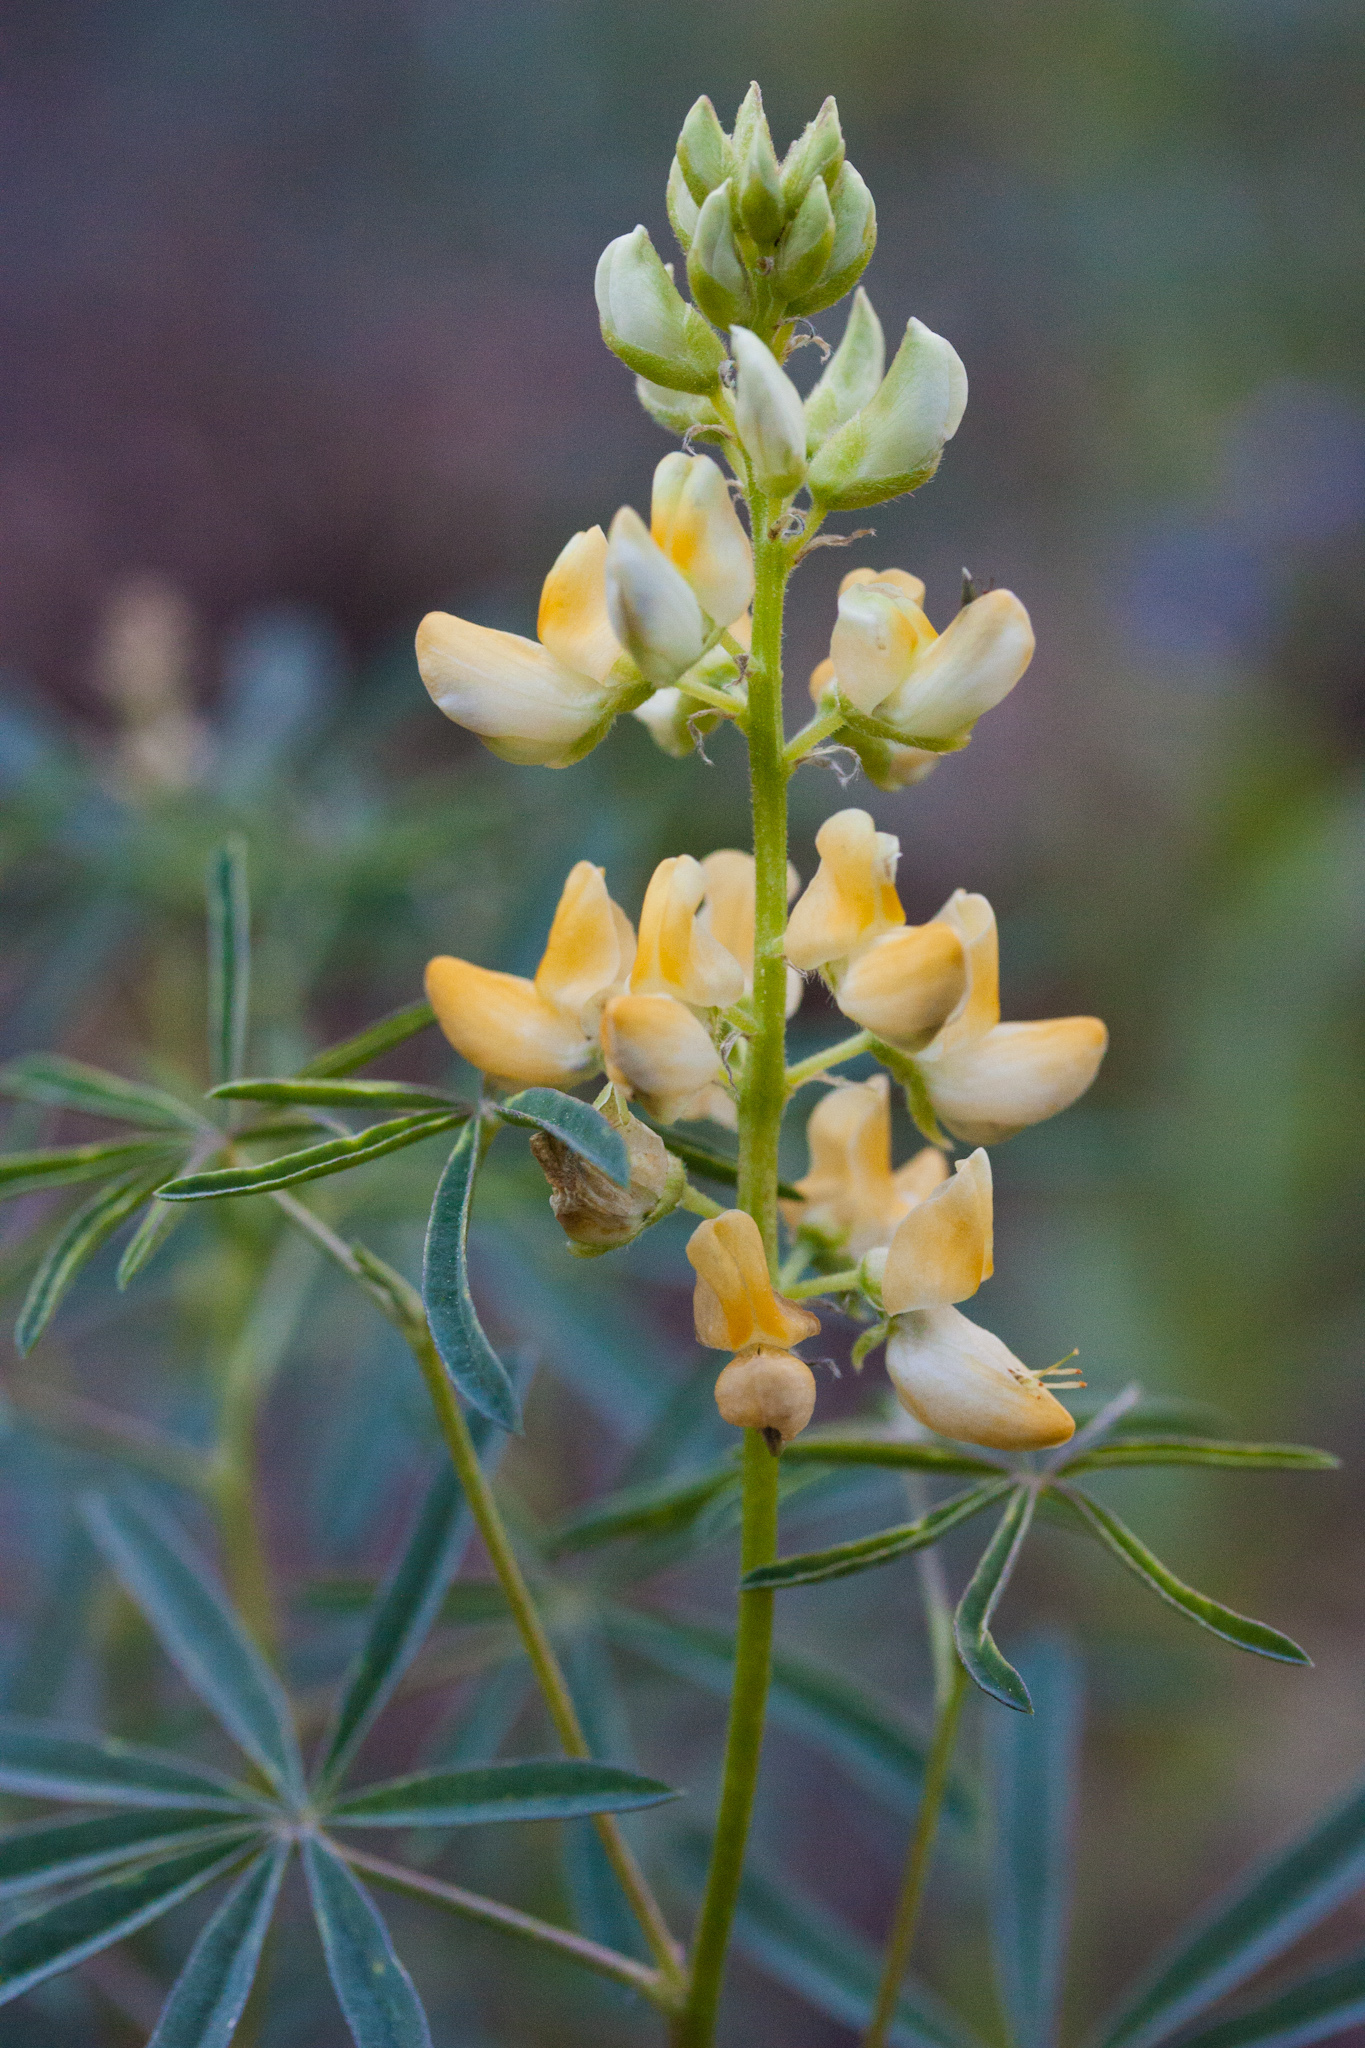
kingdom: Plantae
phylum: Tracheophyta
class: Magnoliopsida
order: Fabales
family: Fabaceae
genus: Lupinus
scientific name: Lupinus angustiflorus
